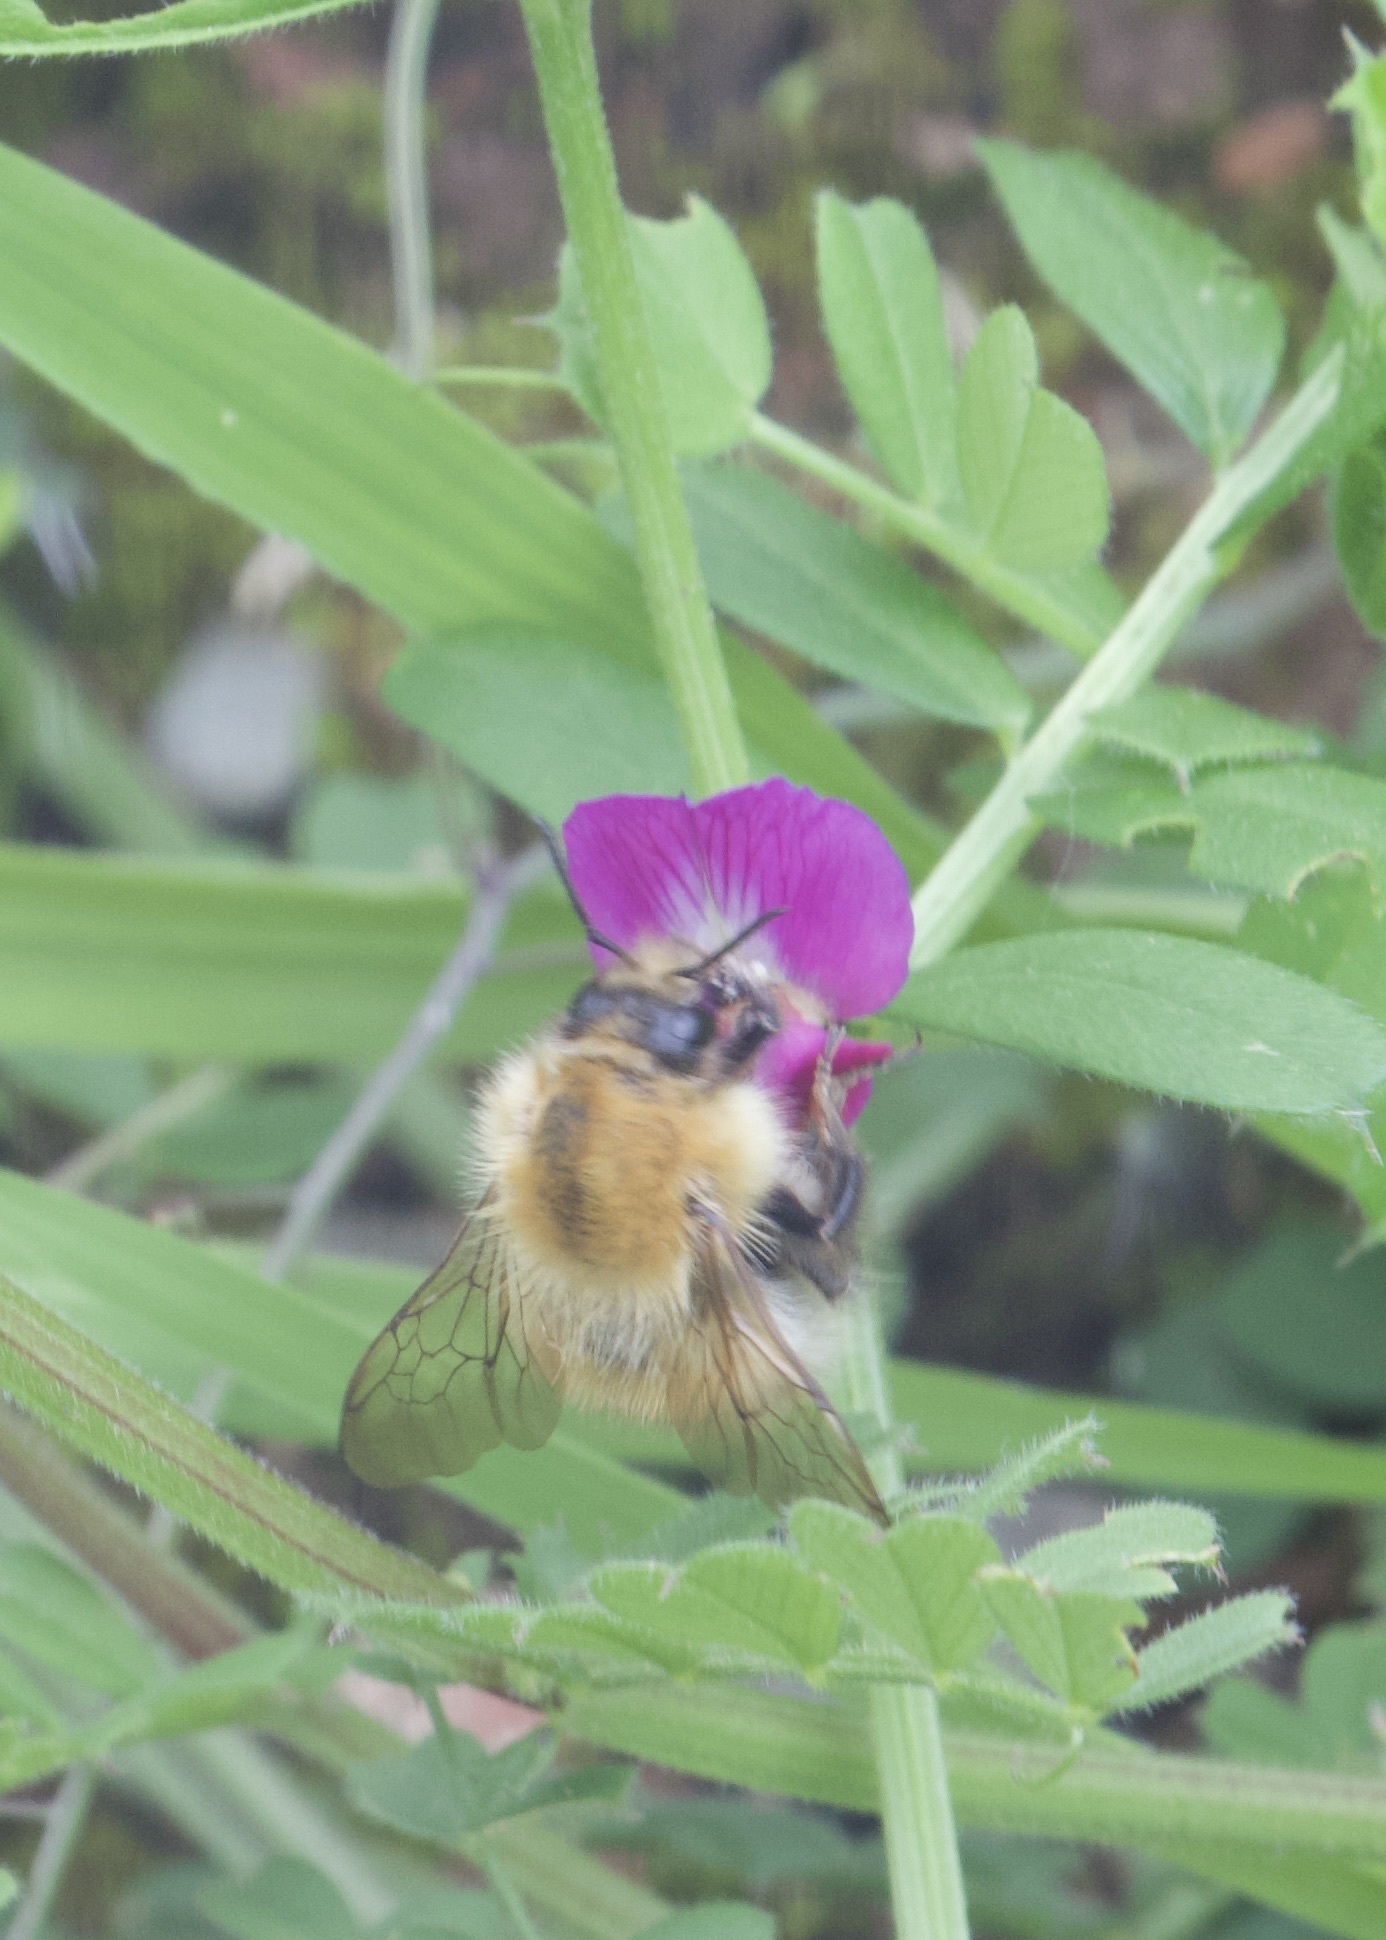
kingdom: Animalia
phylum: Arthropoda
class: Insecta
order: Hymenoptera
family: Apidae
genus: Bombus
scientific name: Bombus pascuorum
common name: Common carder bee
